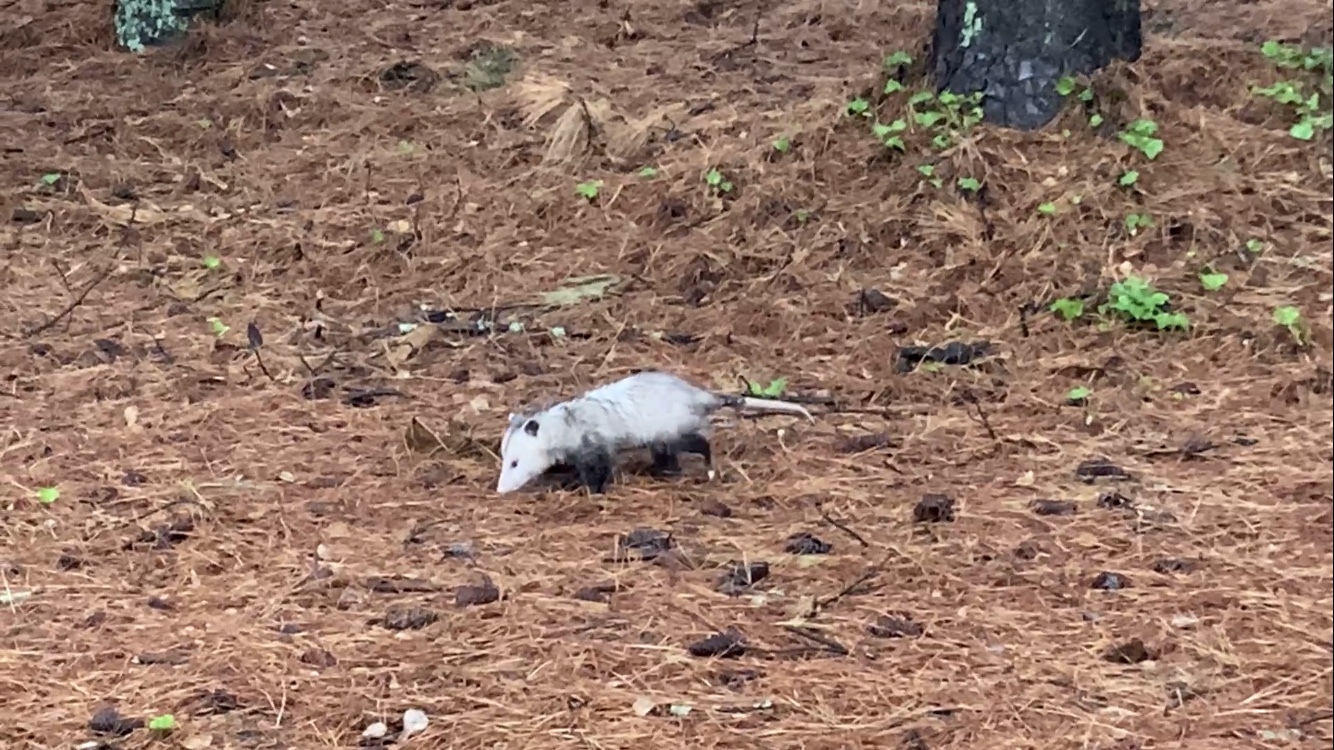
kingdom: Animalia
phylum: Chordata
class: Mammalia
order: Didelphimorphia
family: Didelphidae
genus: Didelphis
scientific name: Didelphis virginiana
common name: Virginia opossum
